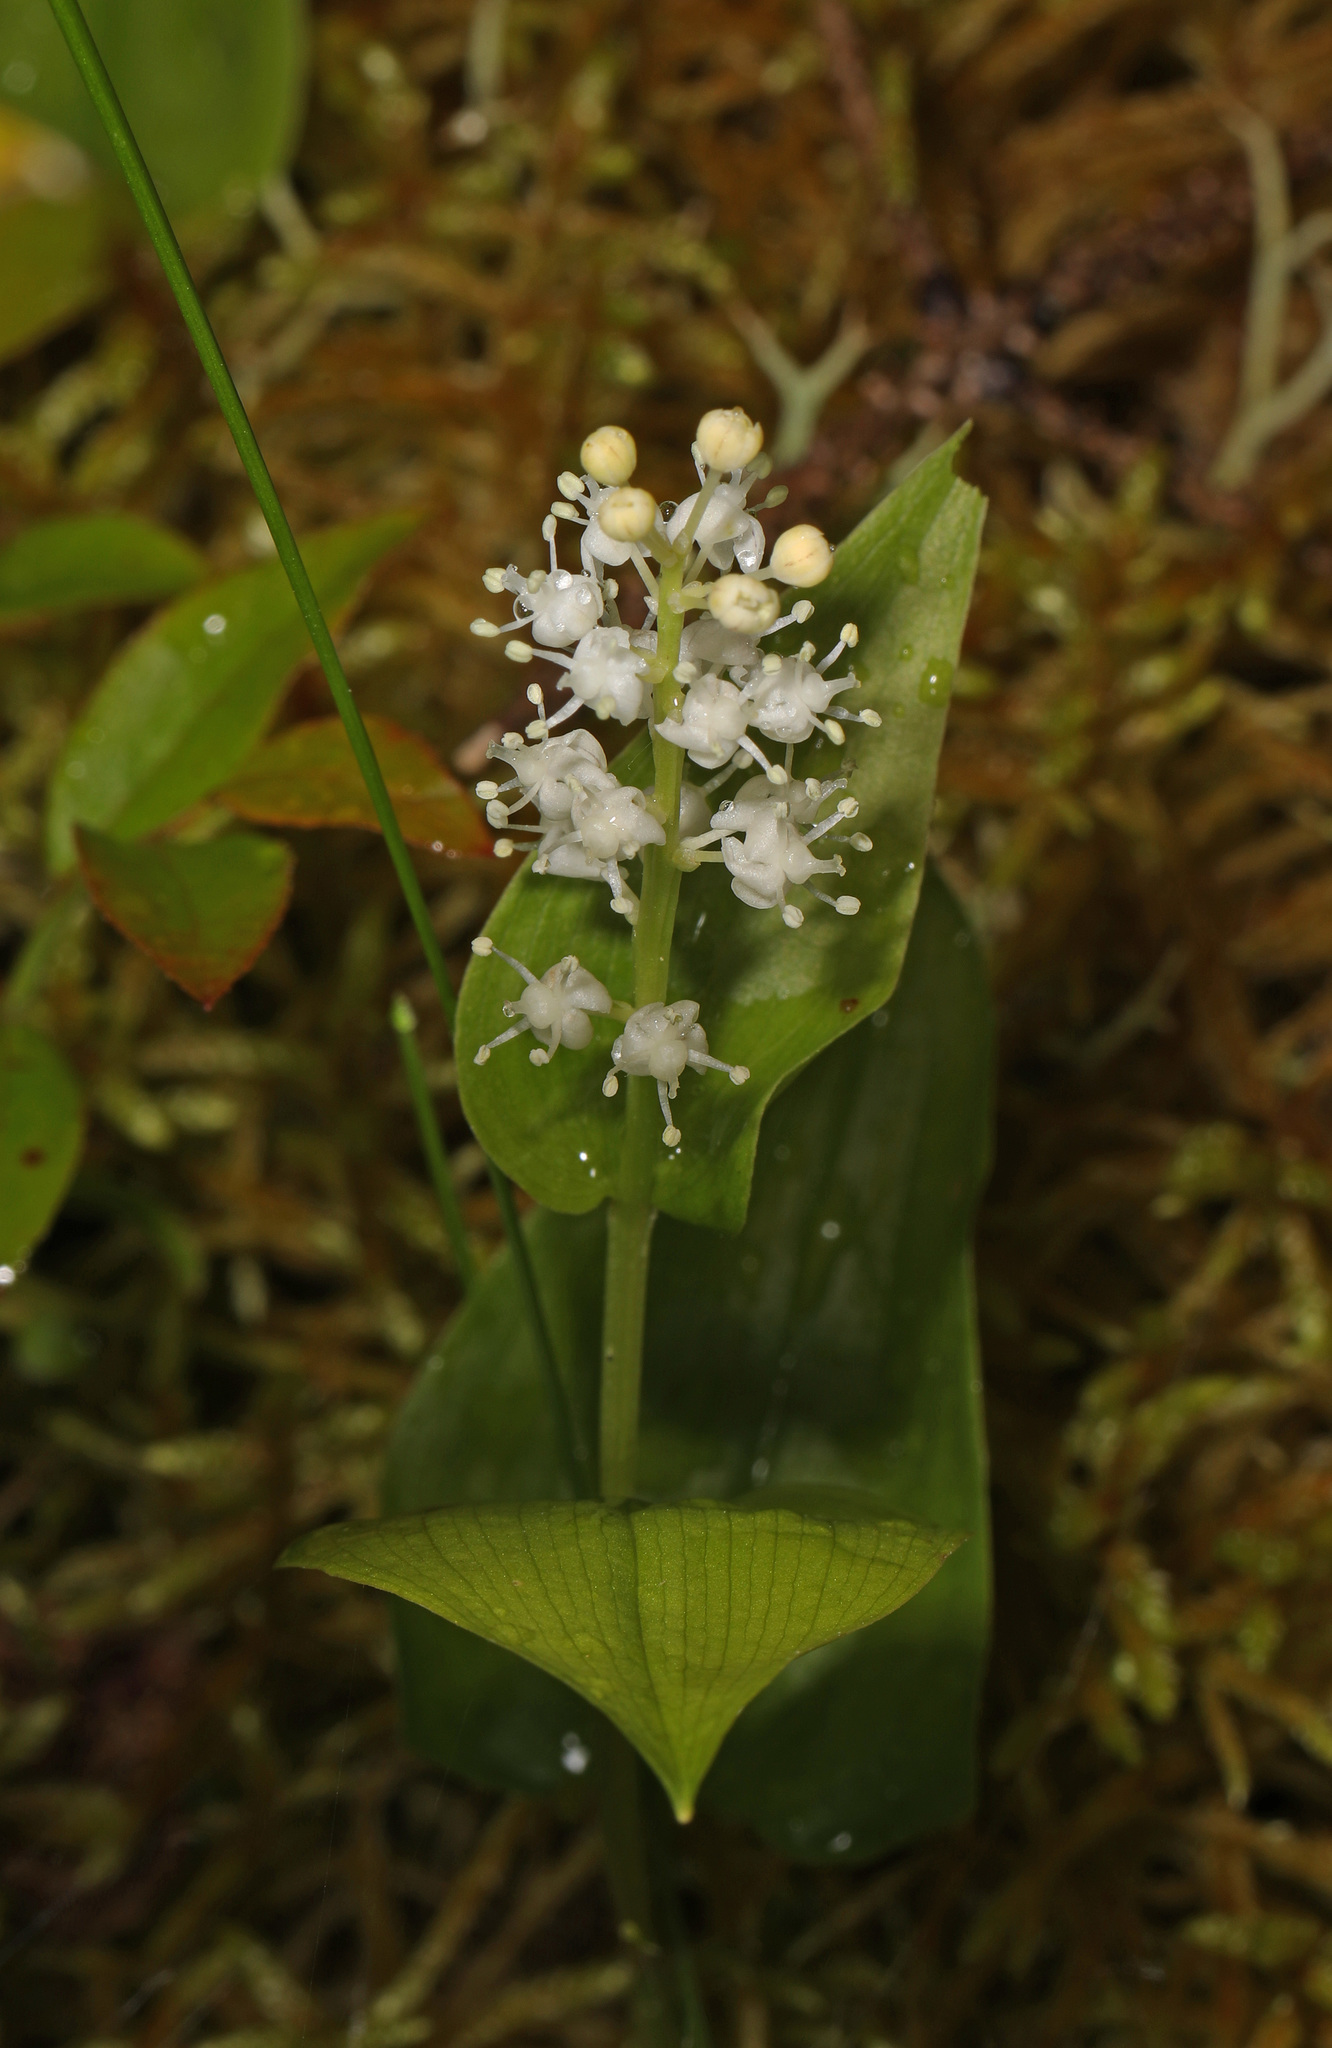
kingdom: Plantae
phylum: Tracheophyta
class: Liliopsida
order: Asparagales
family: Asparagaceae
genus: Maianthemum
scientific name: Maianthemum canadense
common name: False lily-of-the-valley
